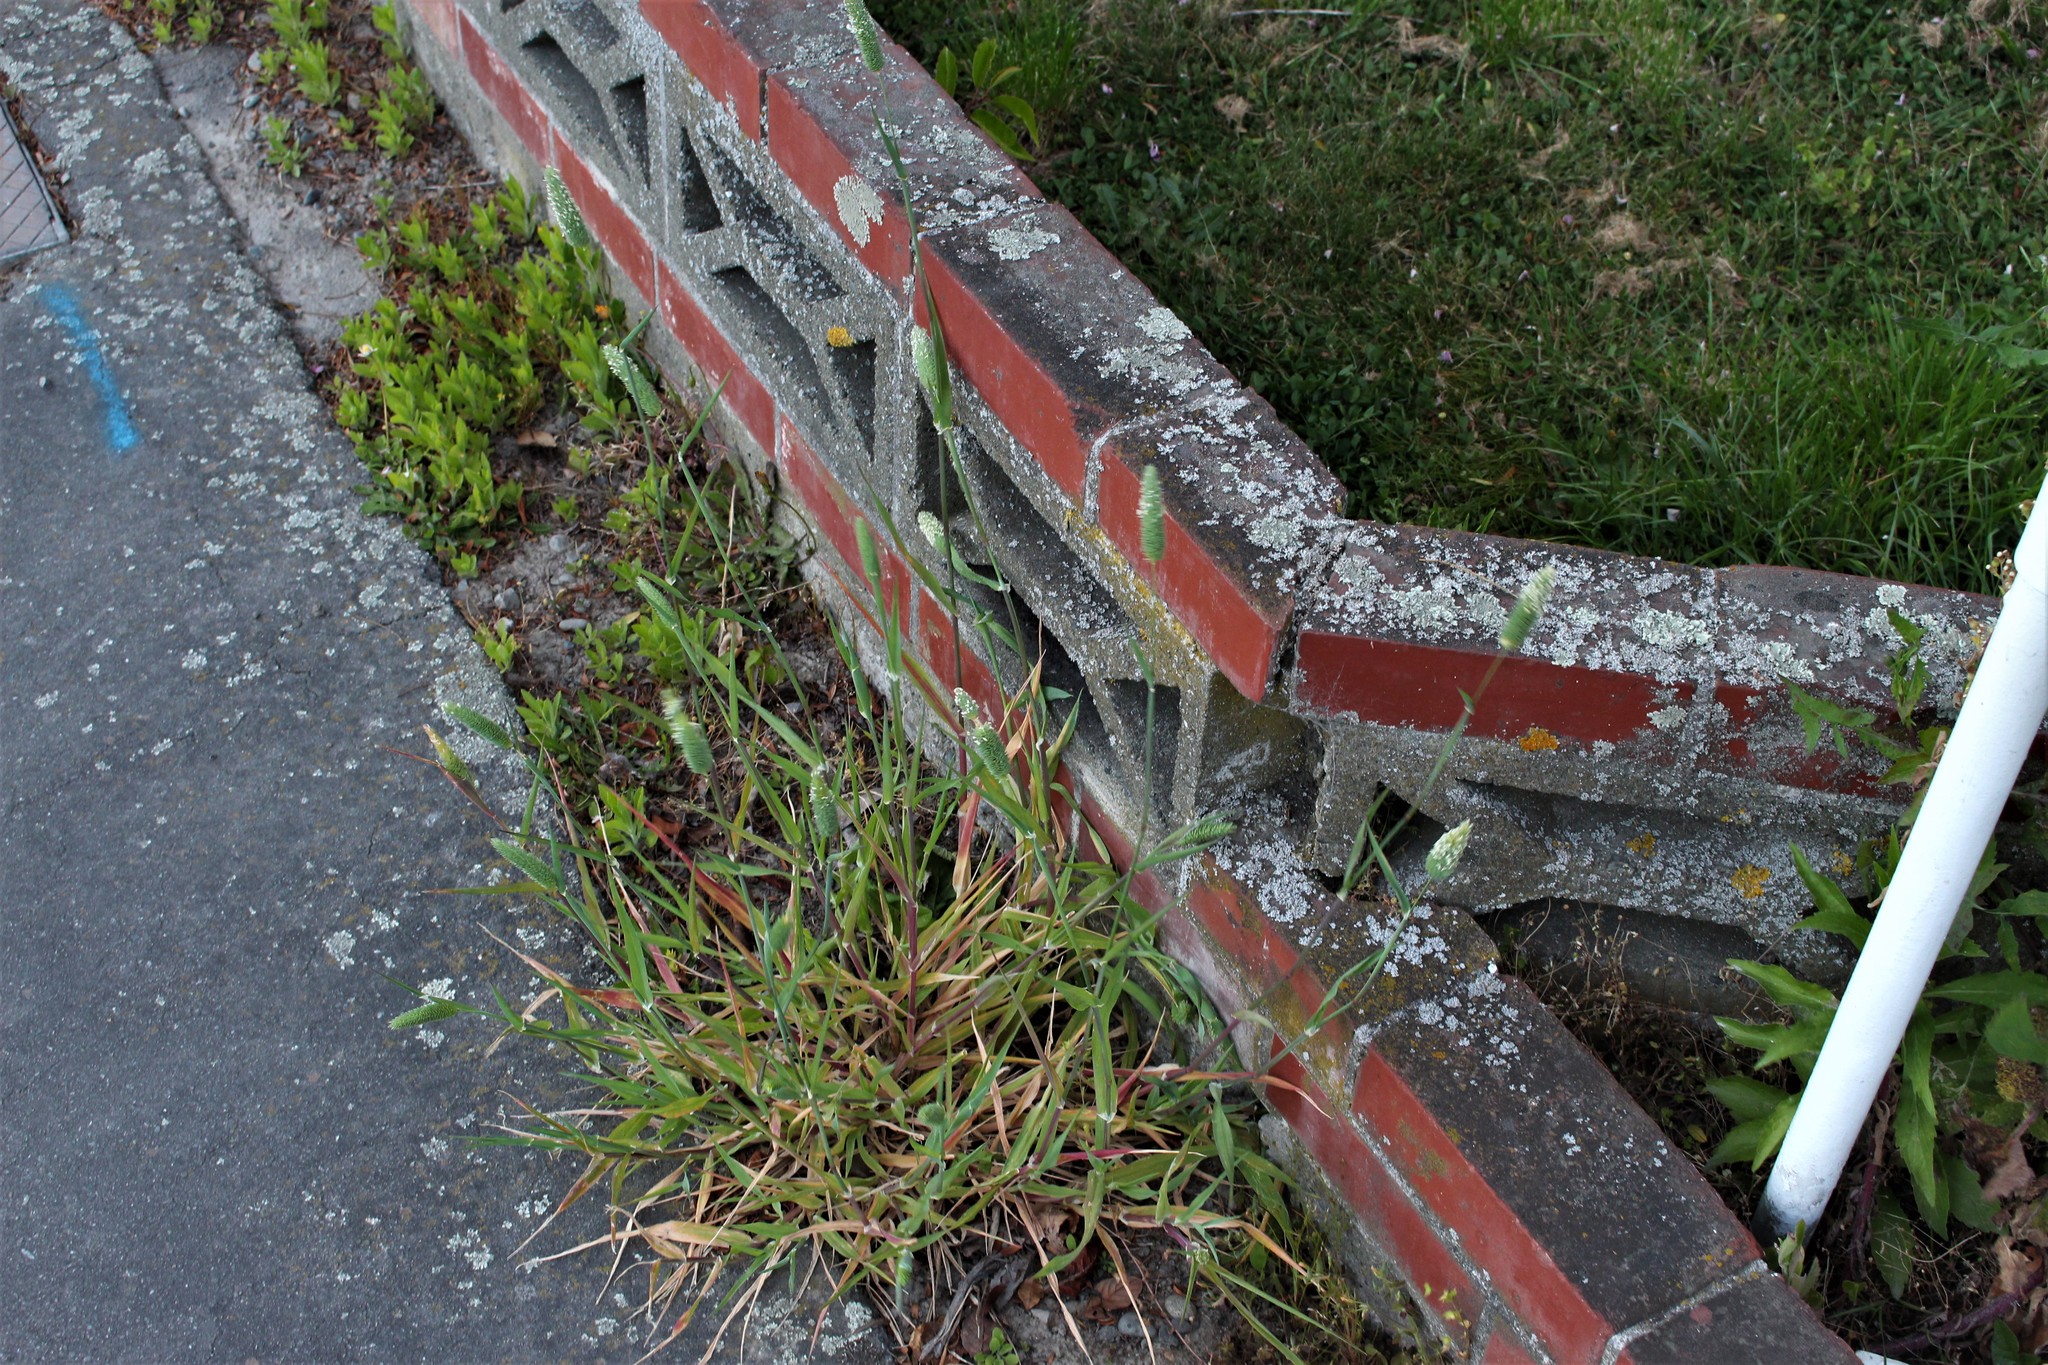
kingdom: Plantae
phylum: Tracheophyta
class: Liliopsida
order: Poales
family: Poaceae
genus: Phalaris
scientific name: Phalaris minor
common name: Littleseed canarygrass
